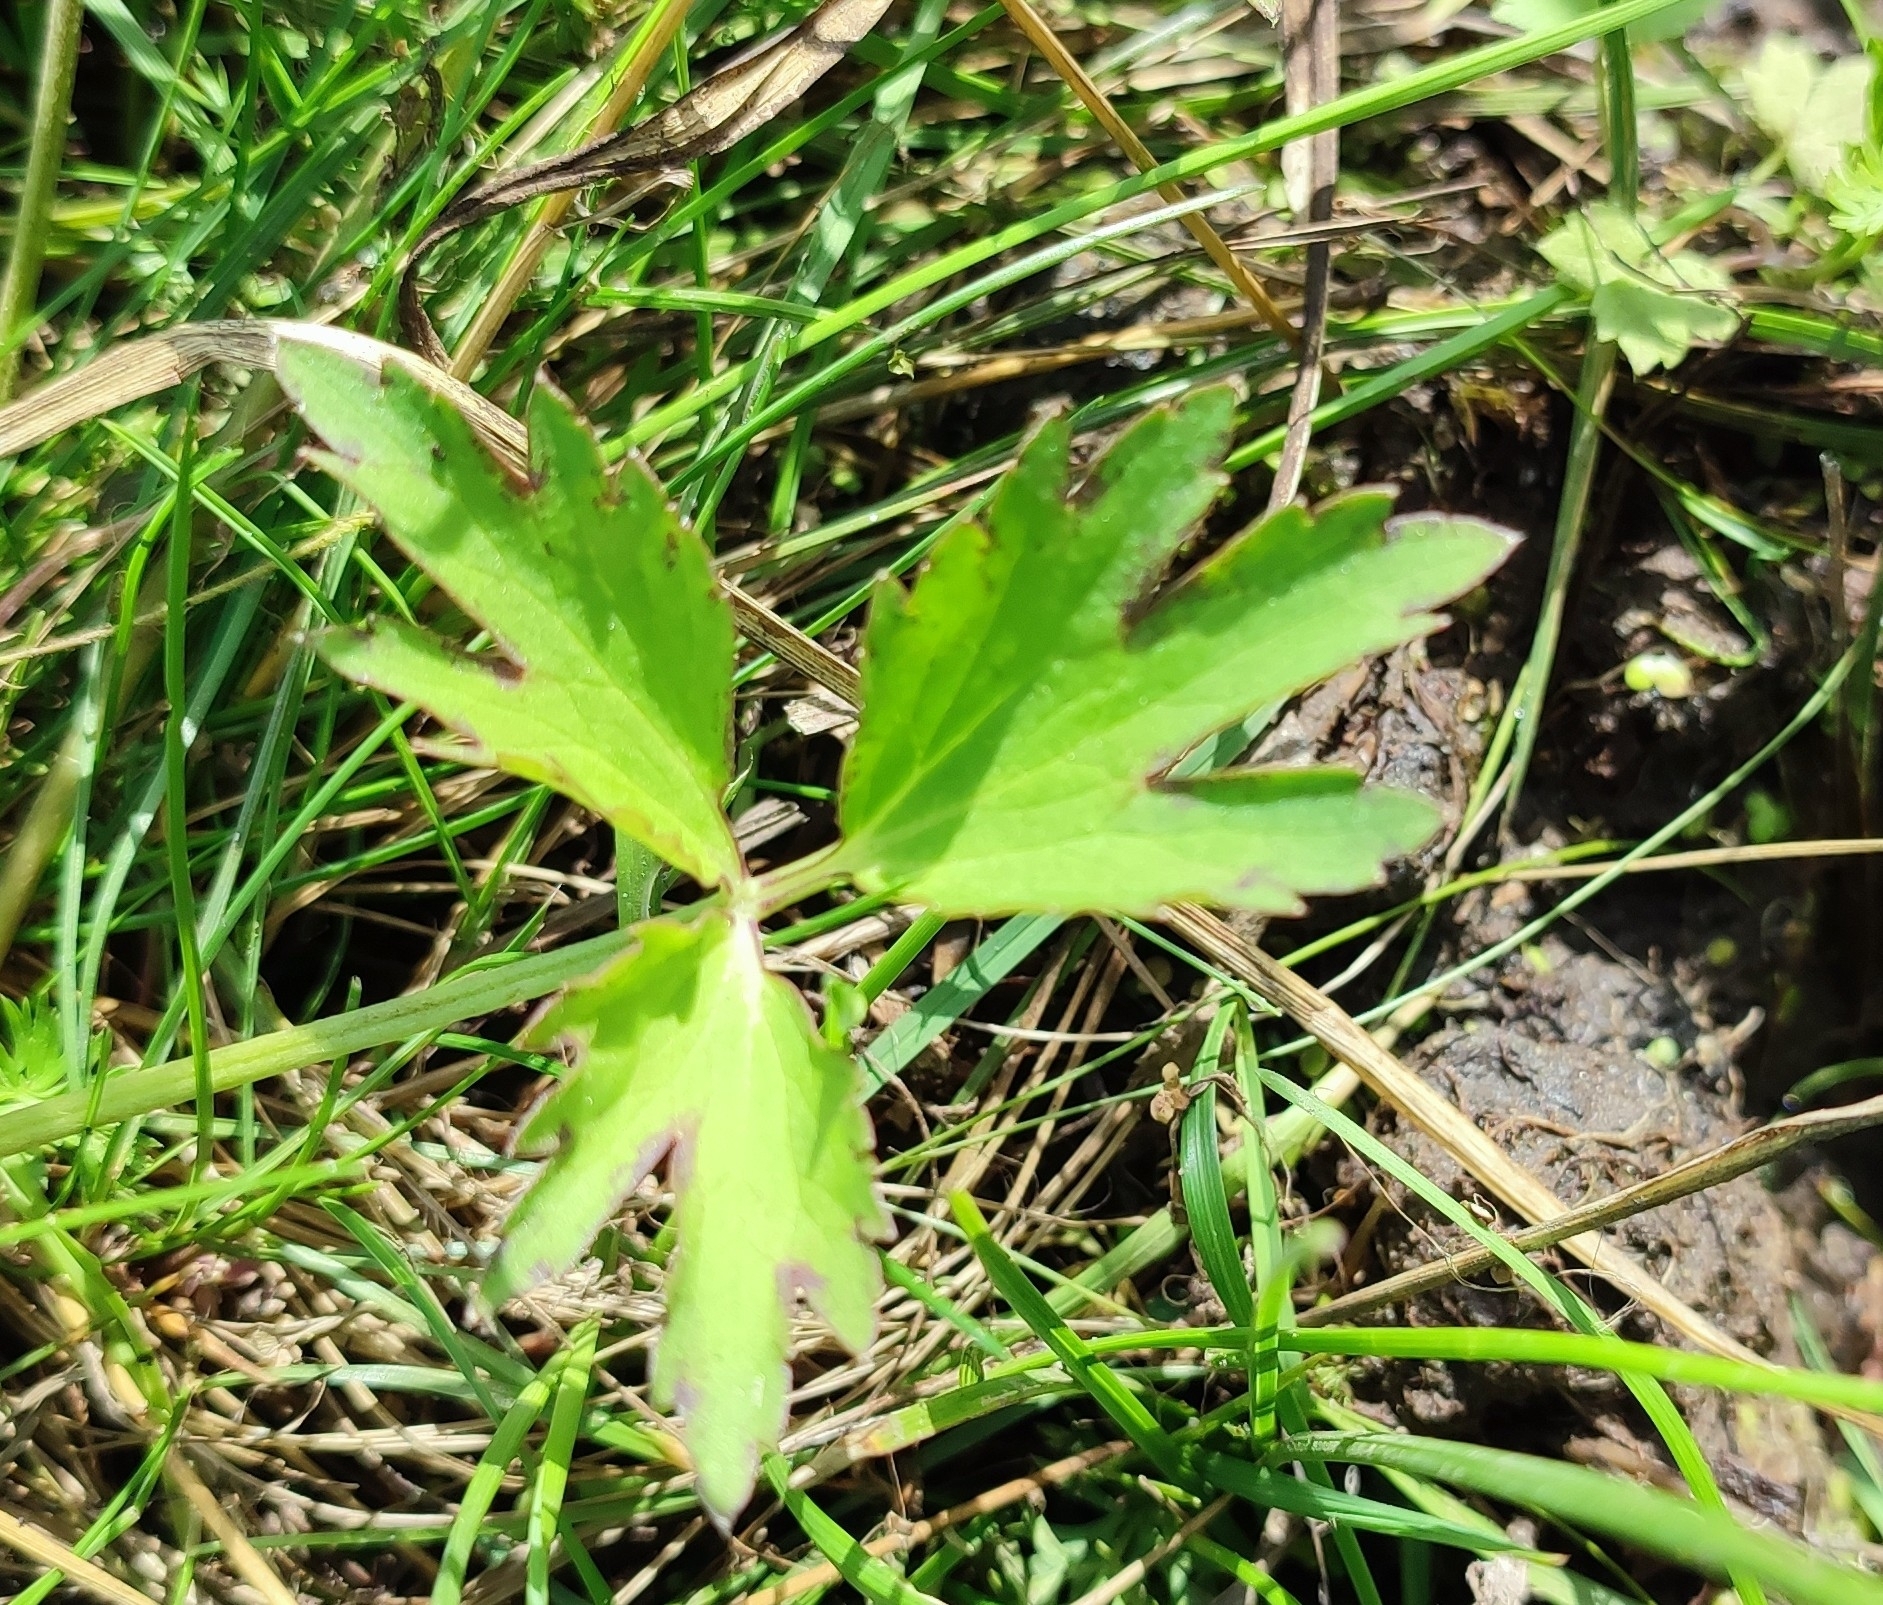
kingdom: Plantae
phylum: Tracheophyta
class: Magnoliopsida
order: Ranunculales
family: Ranunculaceae
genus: Ranunculus
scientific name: Ranunculus repens
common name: Creeping buttercup
